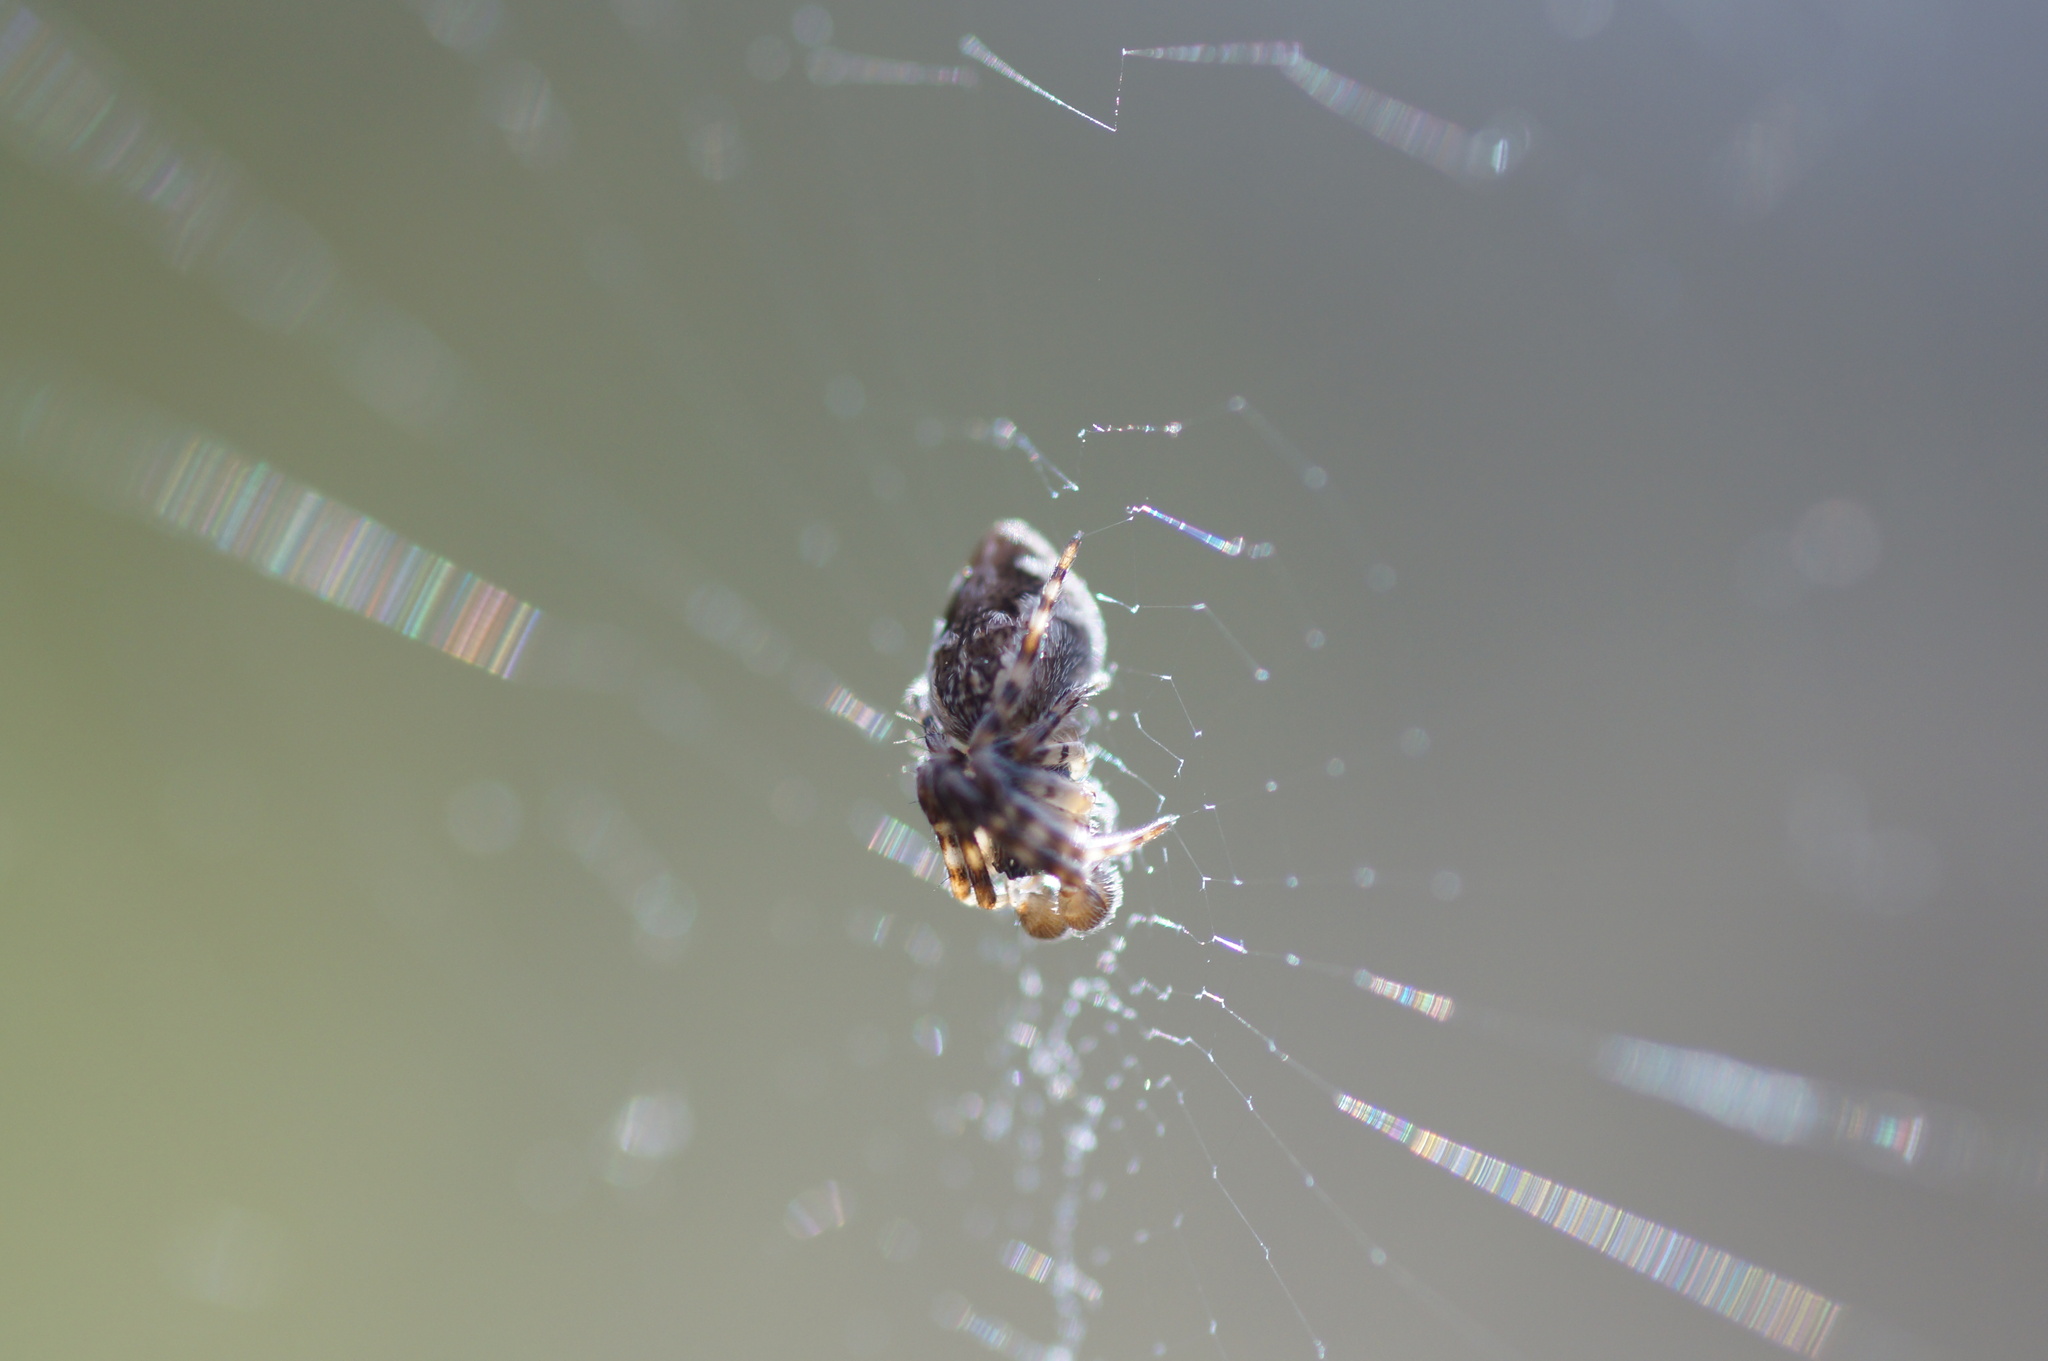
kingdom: Animalia
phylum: Arthropoda
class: Arachnida
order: Araneae
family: Araneidae
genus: Cyclosa
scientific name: Cyclosa conica
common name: Conical trashline orbweaver
